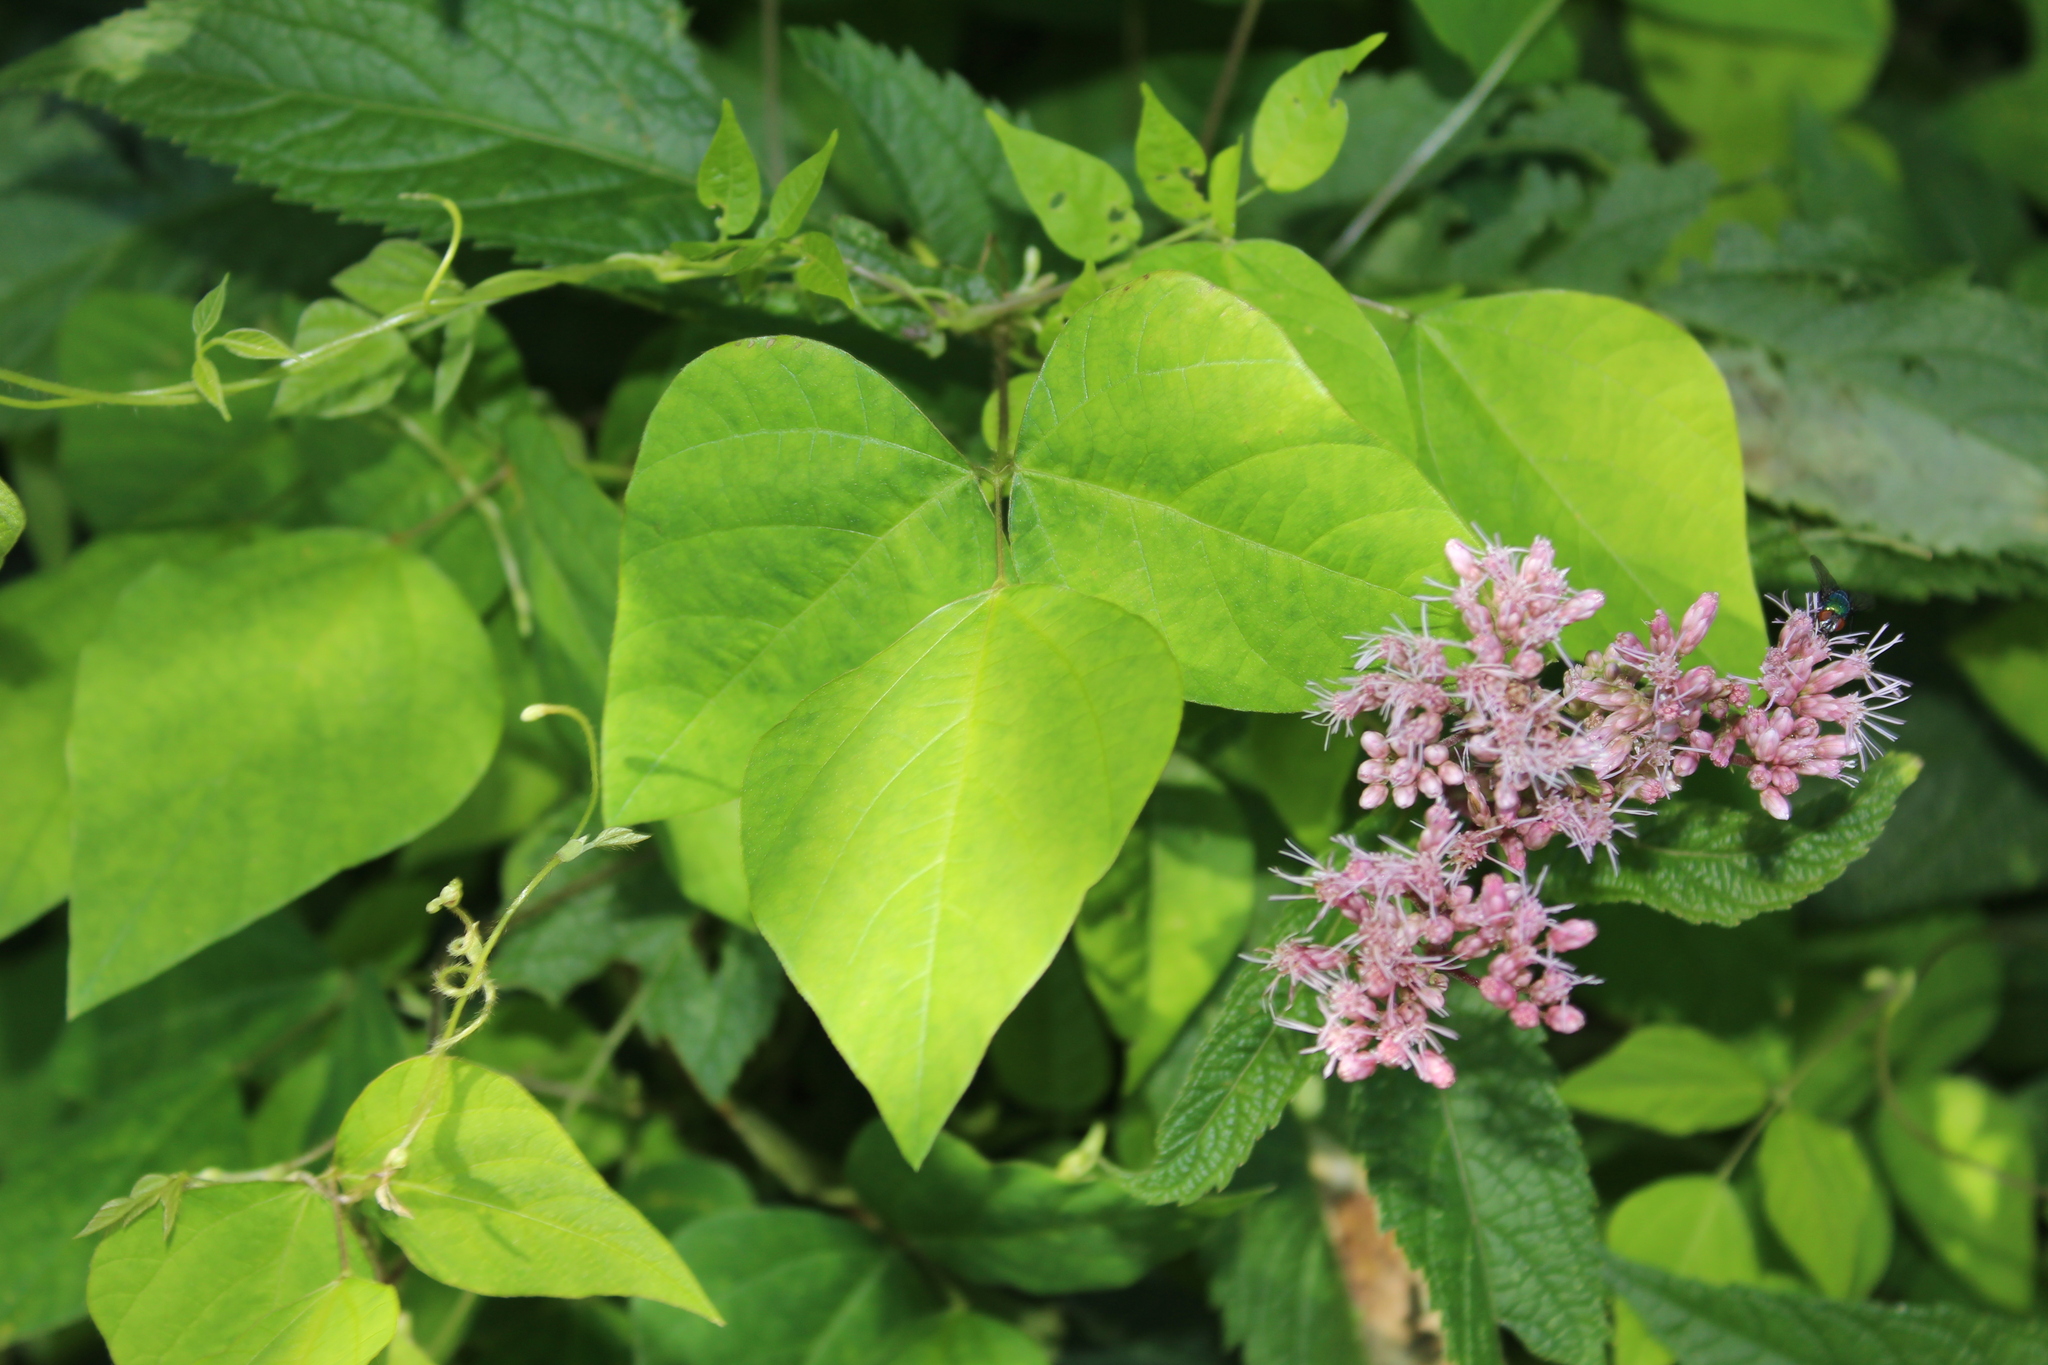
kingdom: Plantae
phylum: Tracheophyta
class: Magnoliopsida
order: Fabales
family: Fabaceae
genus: Amphicarpaea
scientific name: Amphicarpaea bracteata
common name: American hog peanut
